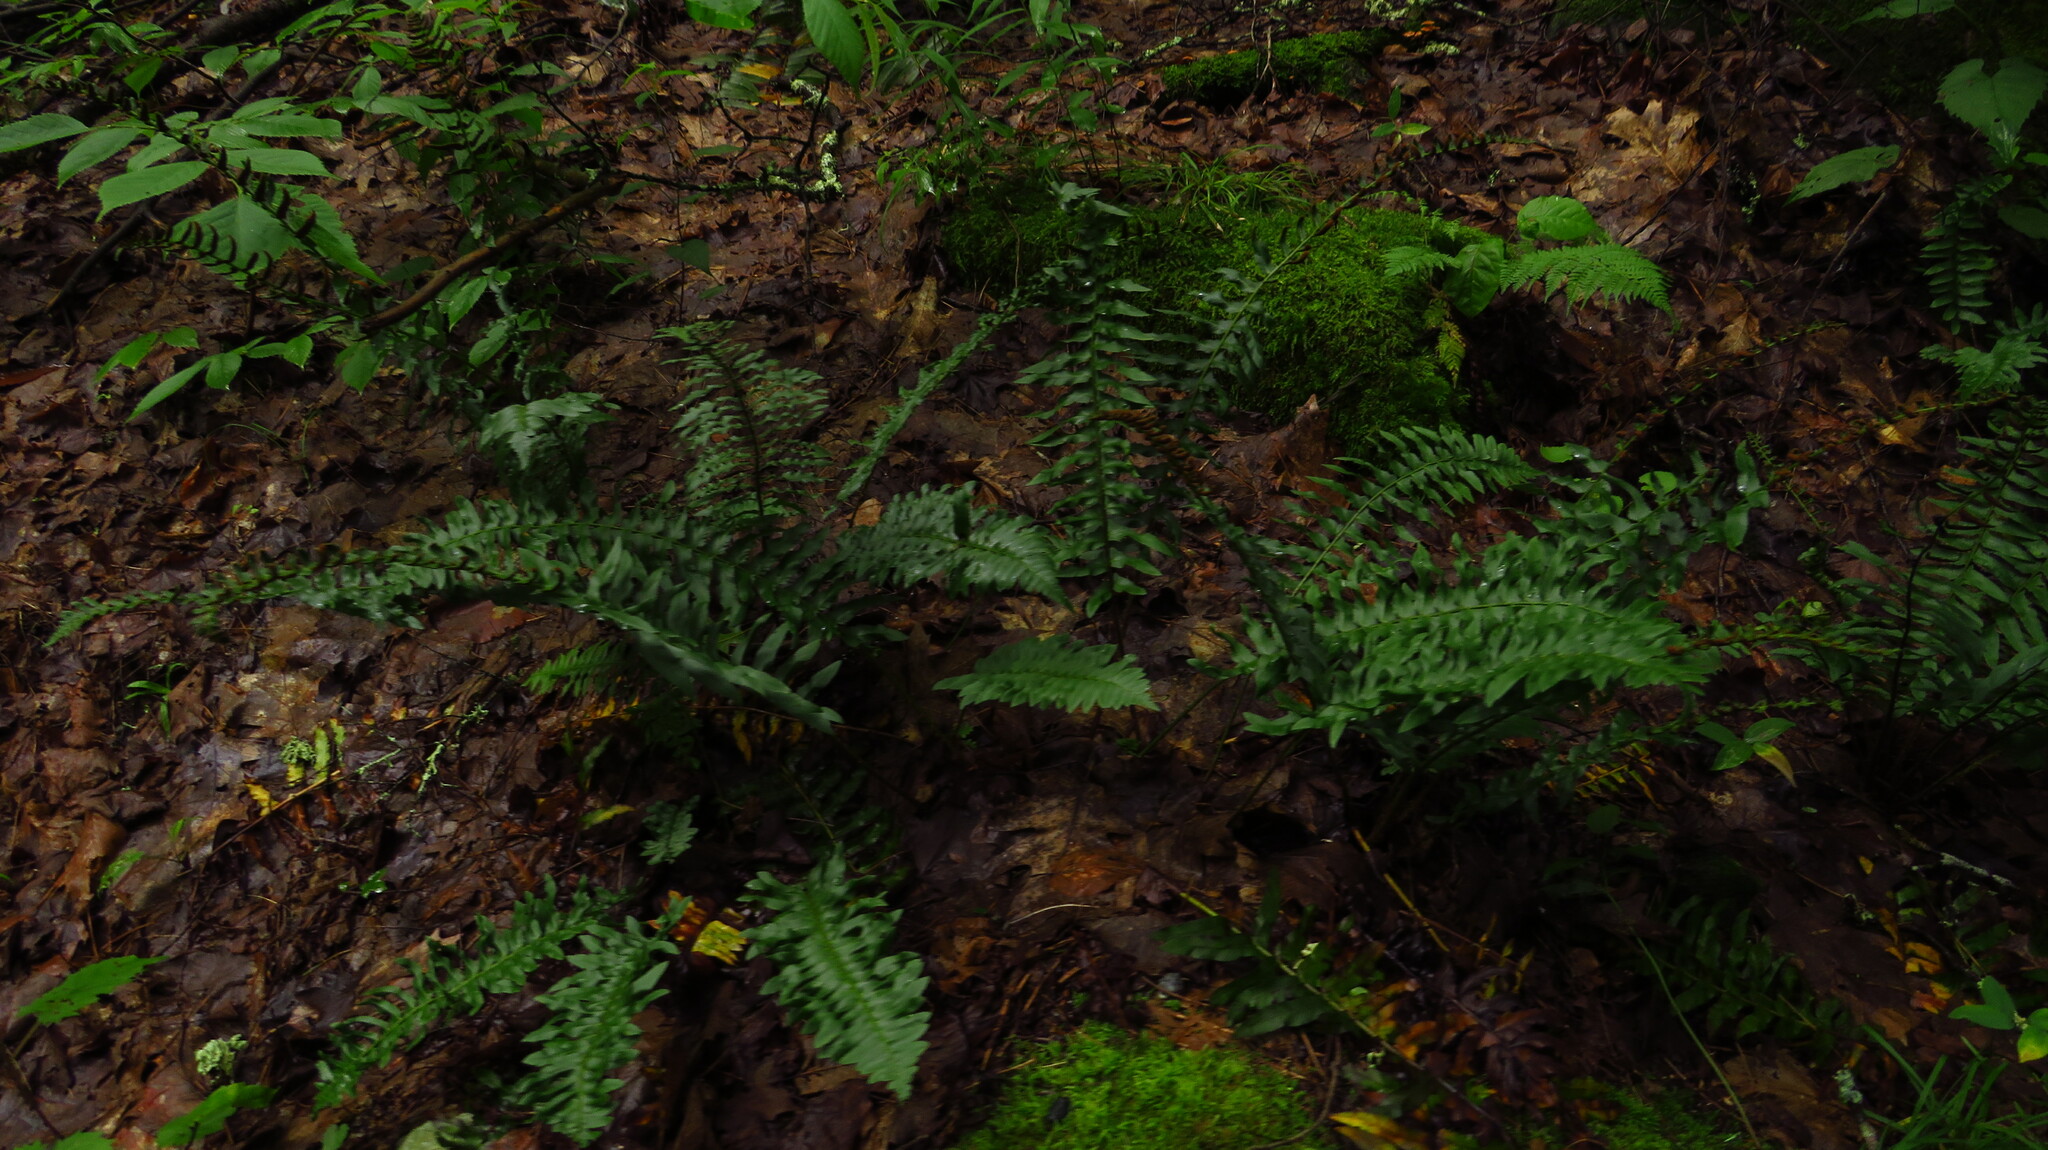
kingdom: Plantae
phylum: Tracheophyta
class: Polypodiopsida
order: Polypodiales
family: Dryopteridaceae
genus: Polystichum
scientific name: Polystichum acrostichoides
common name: Christmas fern
